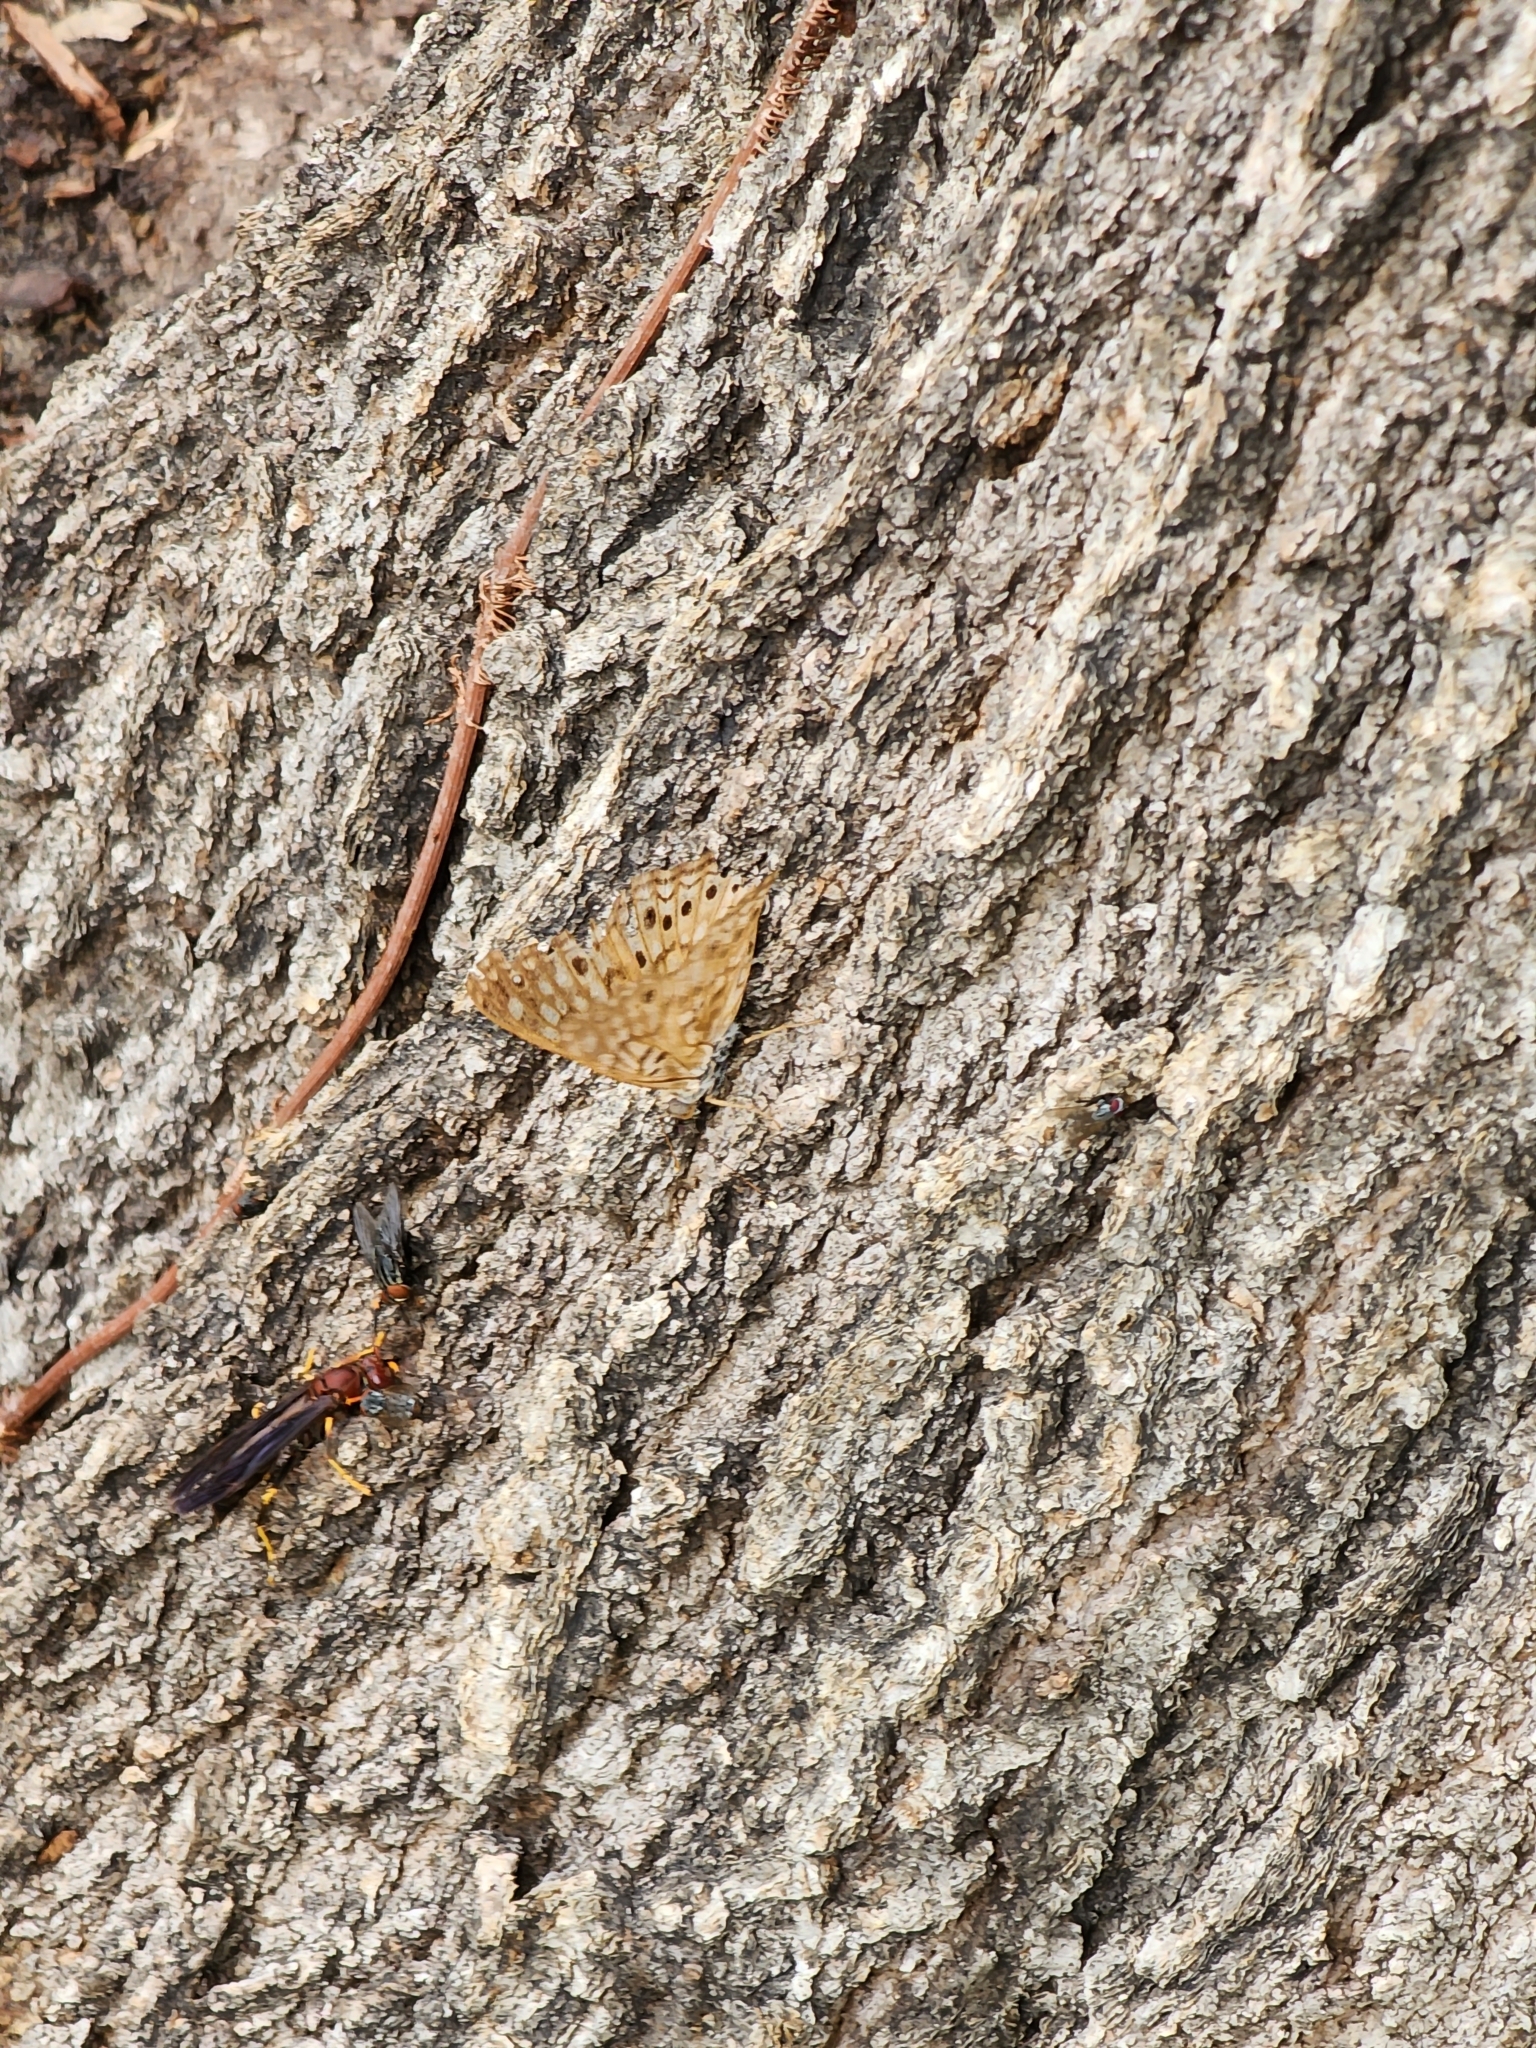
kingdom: Animalia
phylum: Arthropoda
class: Insecta
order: Lepidoptera
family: Nymphalidae
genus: Asterocampa
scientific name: Asterocampa celtis
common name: Hackberry emperor
